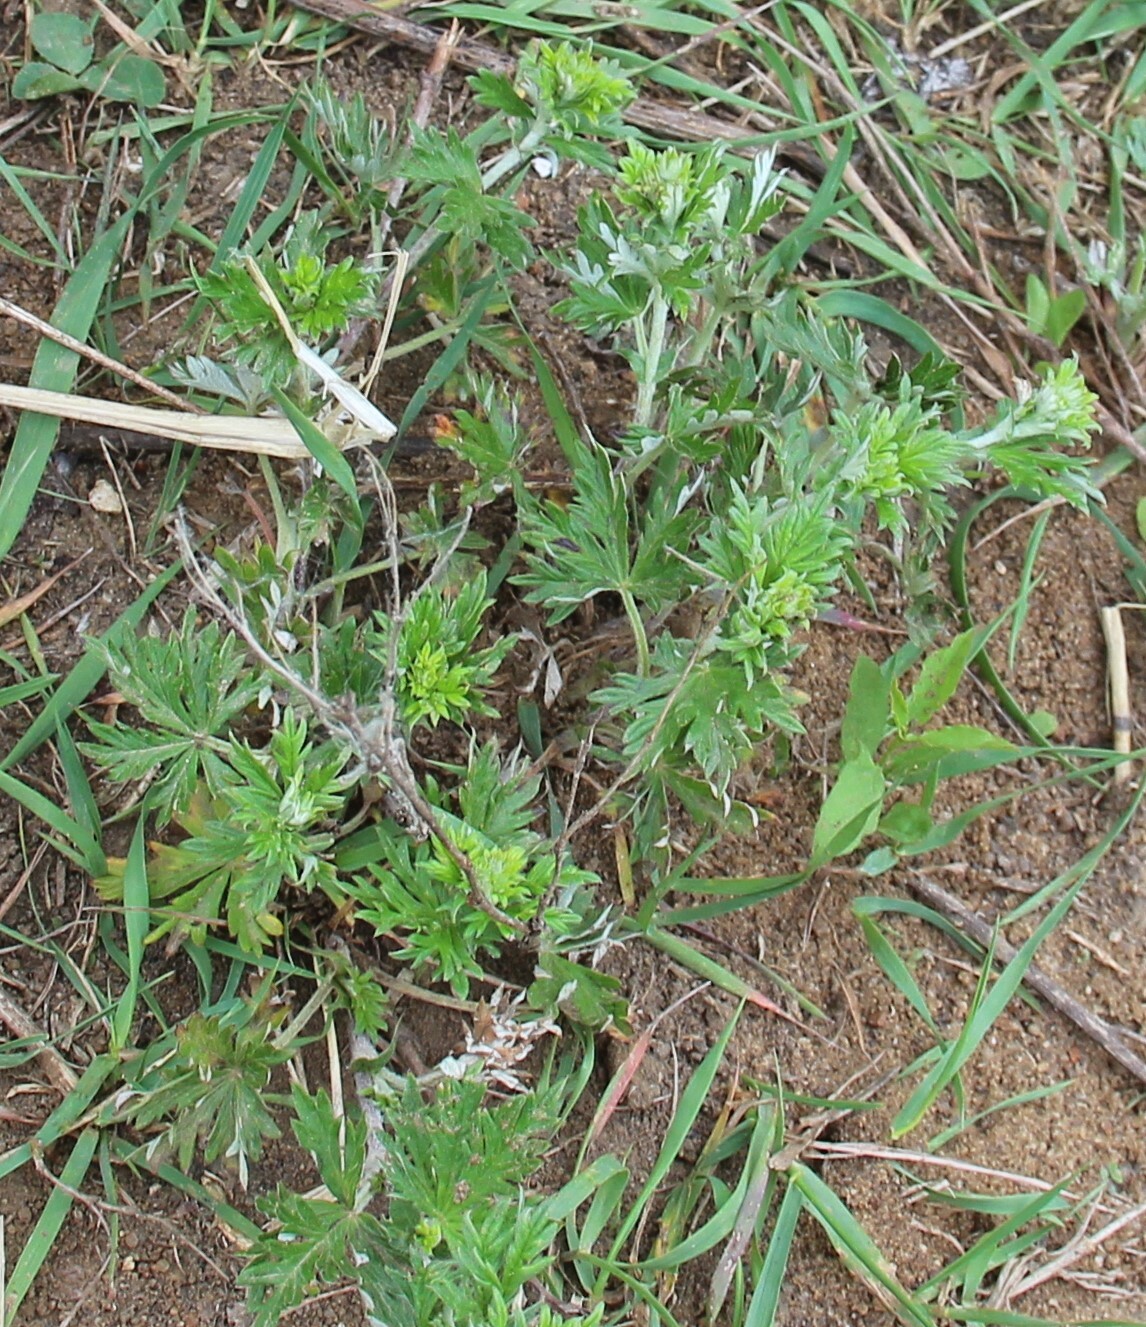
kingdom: Plantae
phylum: Tracheophyta
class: Magnoliopsida
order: Rosales
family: Rosaceae
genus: Potentilla
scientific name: Potentilla argentea
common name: Hoary cinquefoil
